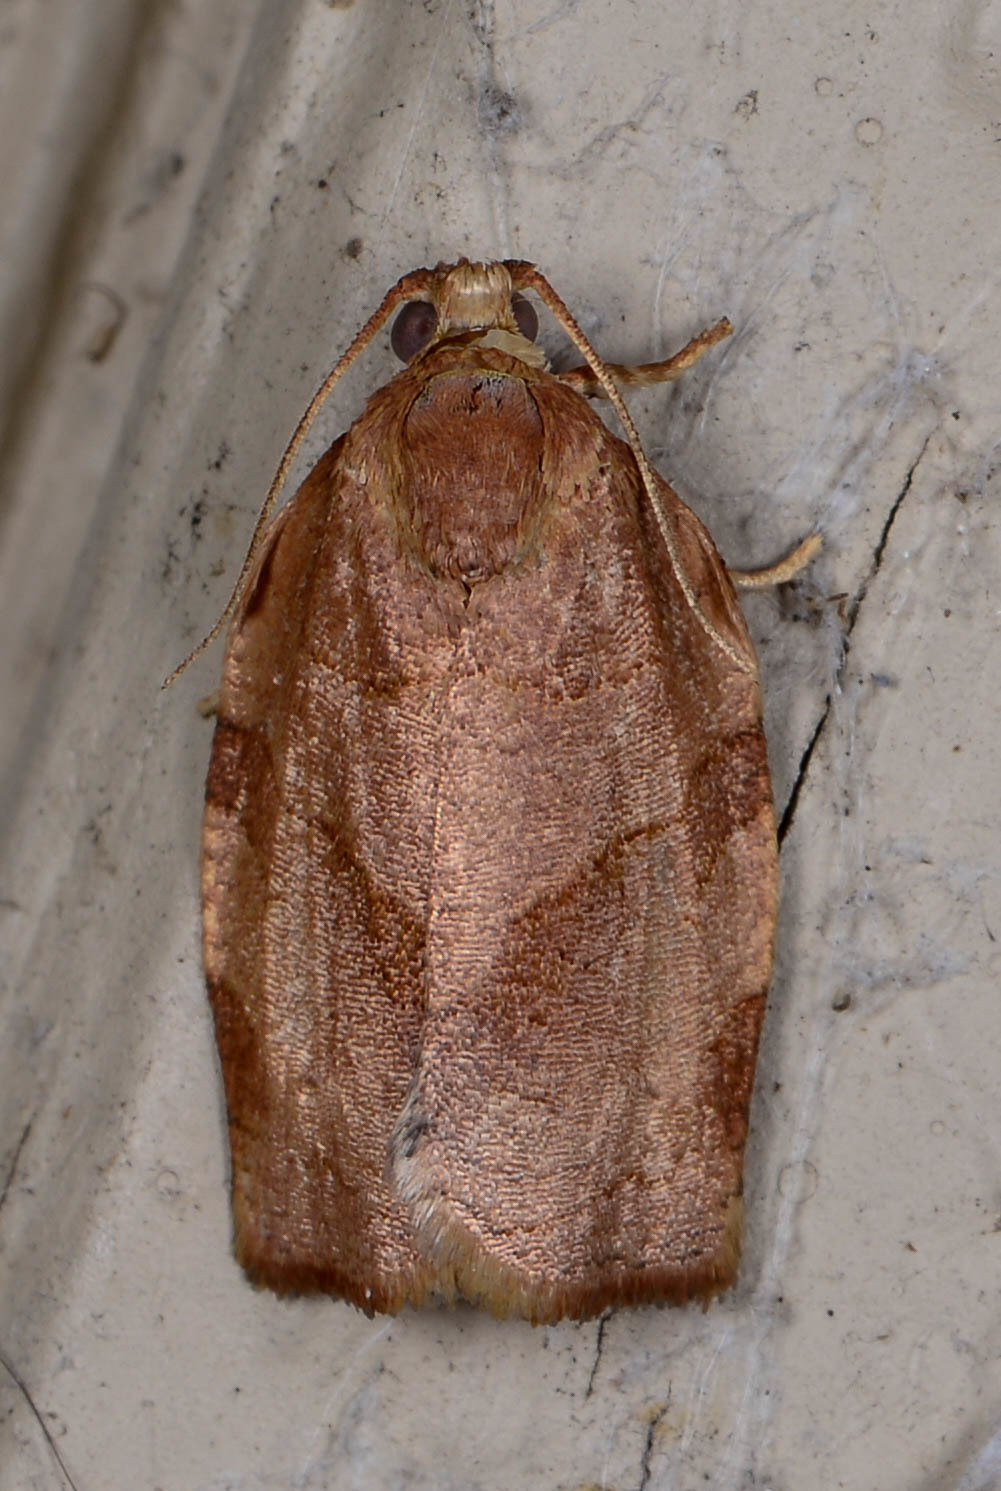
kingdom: Animalia
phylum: Arthropoda
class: Insecta
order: Lepidoptera
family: Tortricidae
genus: Choristoneura
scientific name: Choristoneura rosaceana
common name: Oblique-banded leafroller moth
